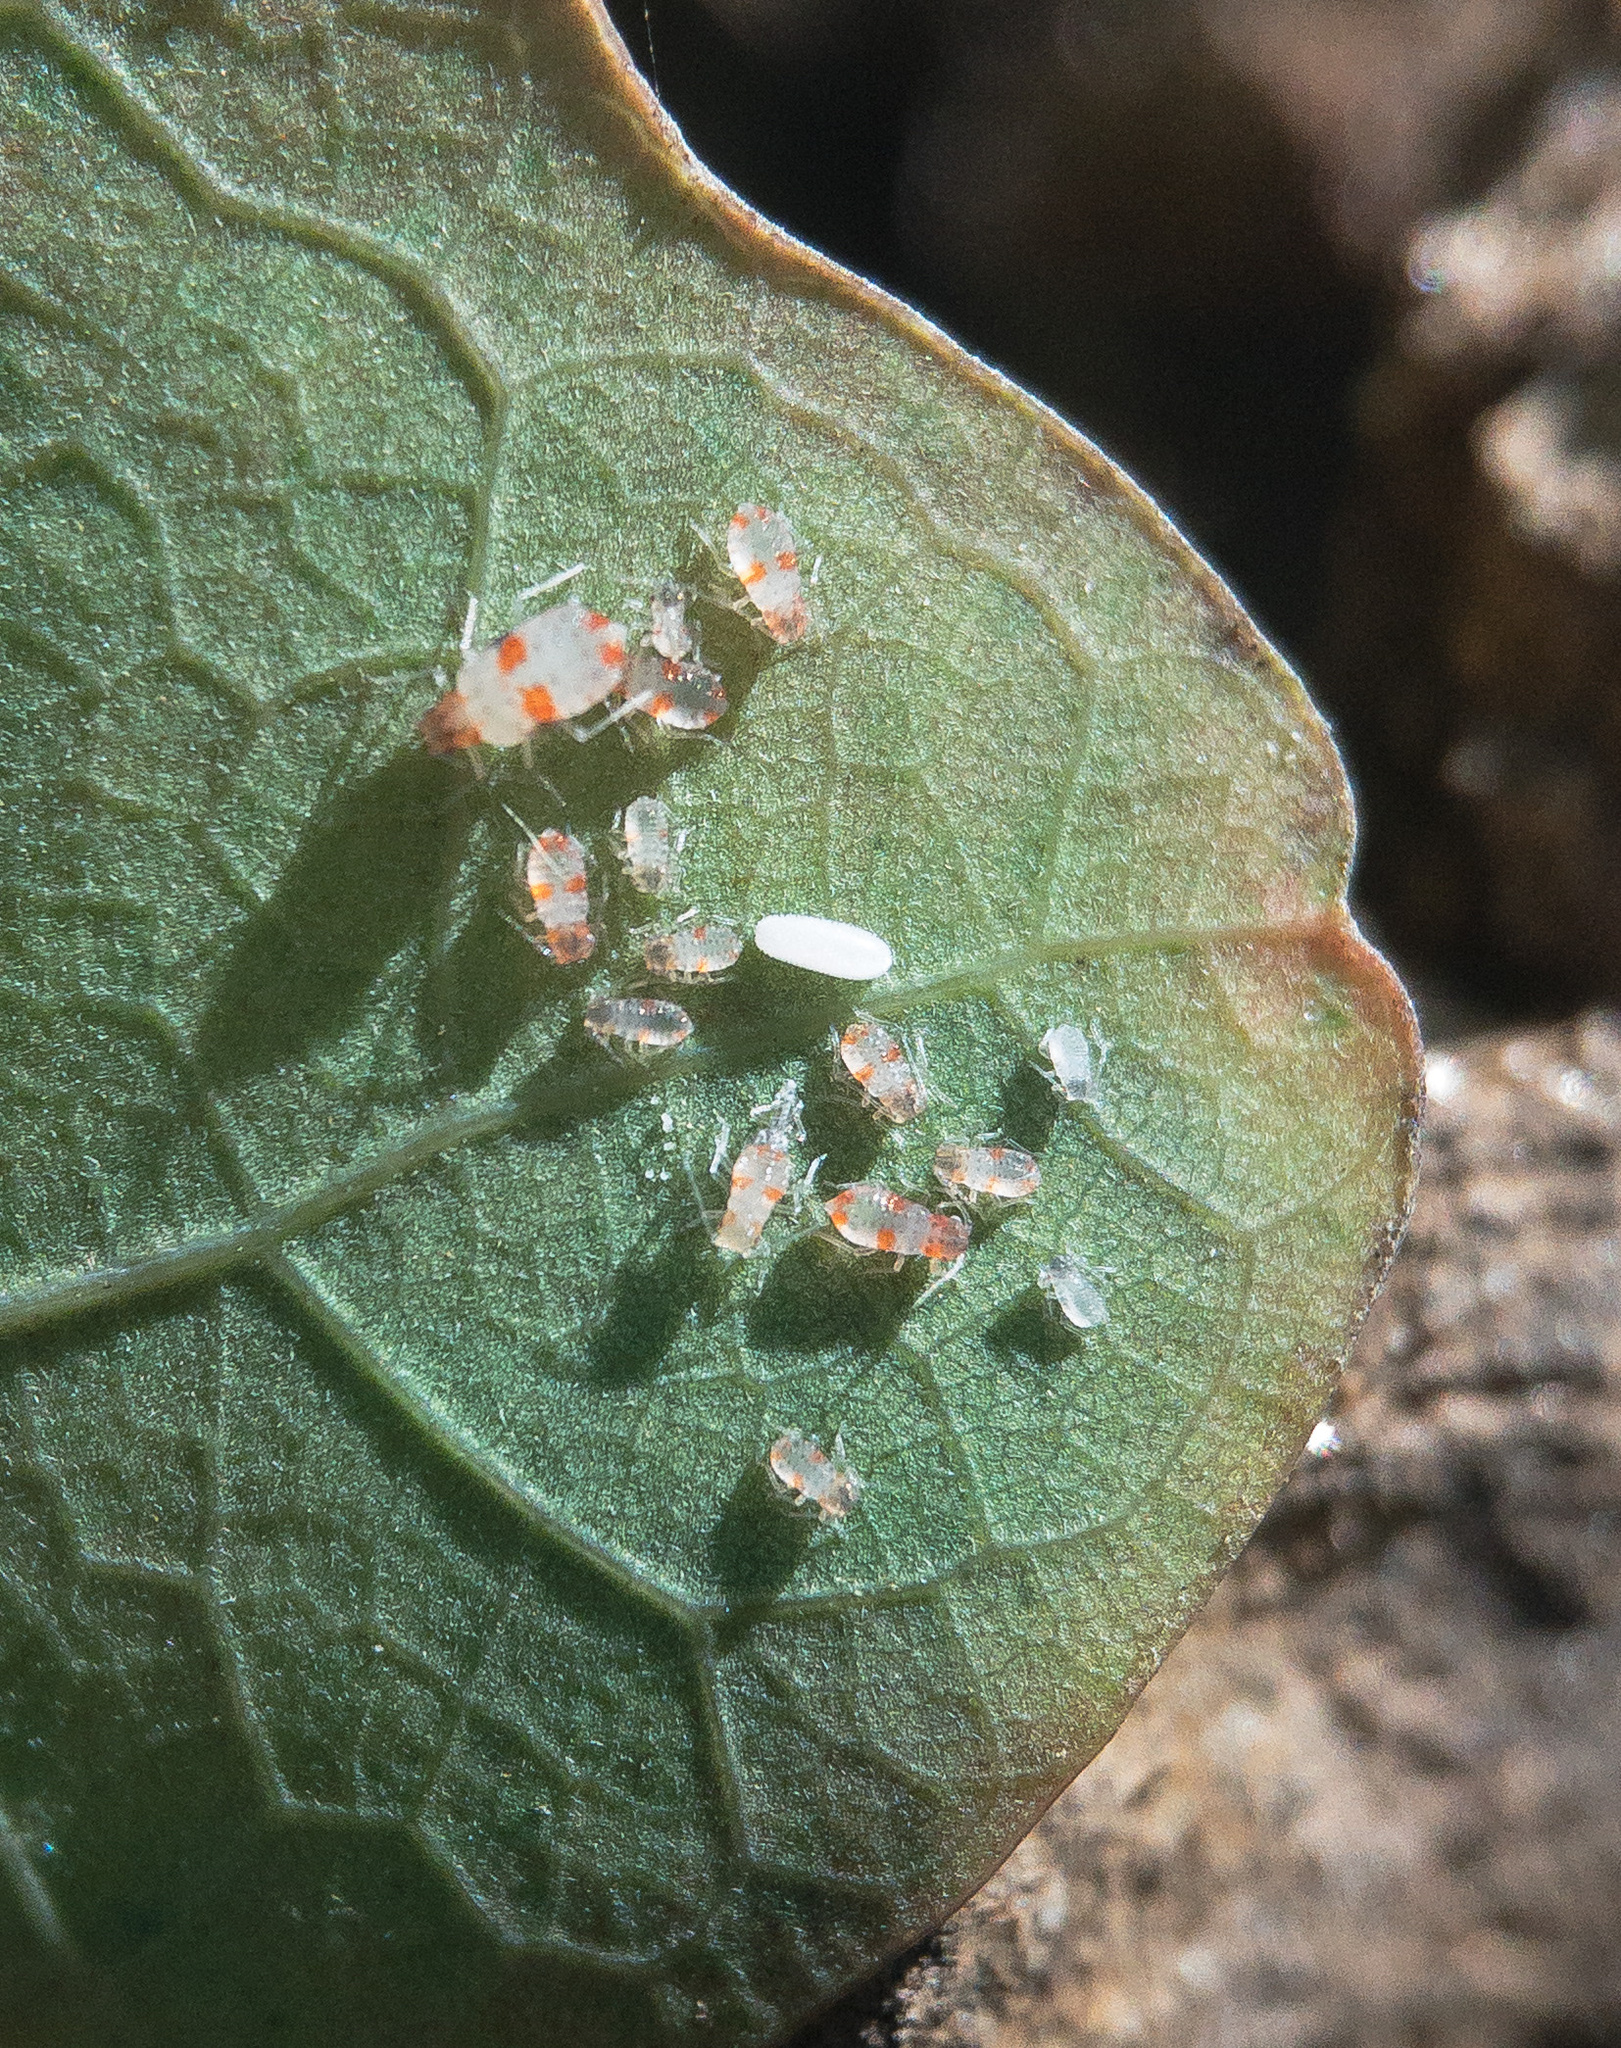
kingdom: Animalia
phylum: Arthropoda
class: Insecta
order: Hemiptera
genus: Neomyzocallis
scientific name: Neomyzocallis
